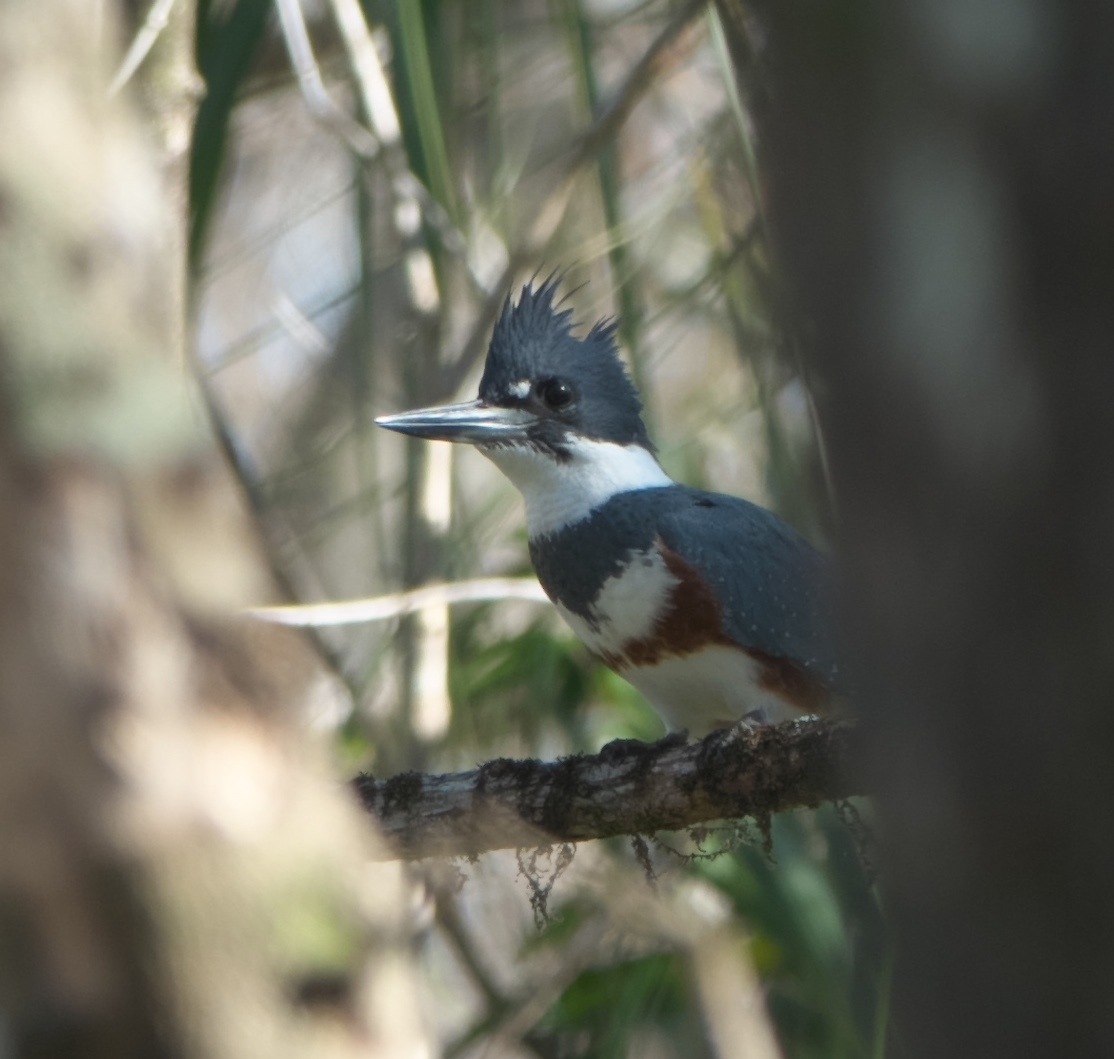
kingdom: Animalia
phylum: Chordata
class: Aves
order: Coraciiformes
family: Alcedinidae
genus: Megaceryle
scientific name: Megaceryle alcyon
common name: Belted kingfisher
